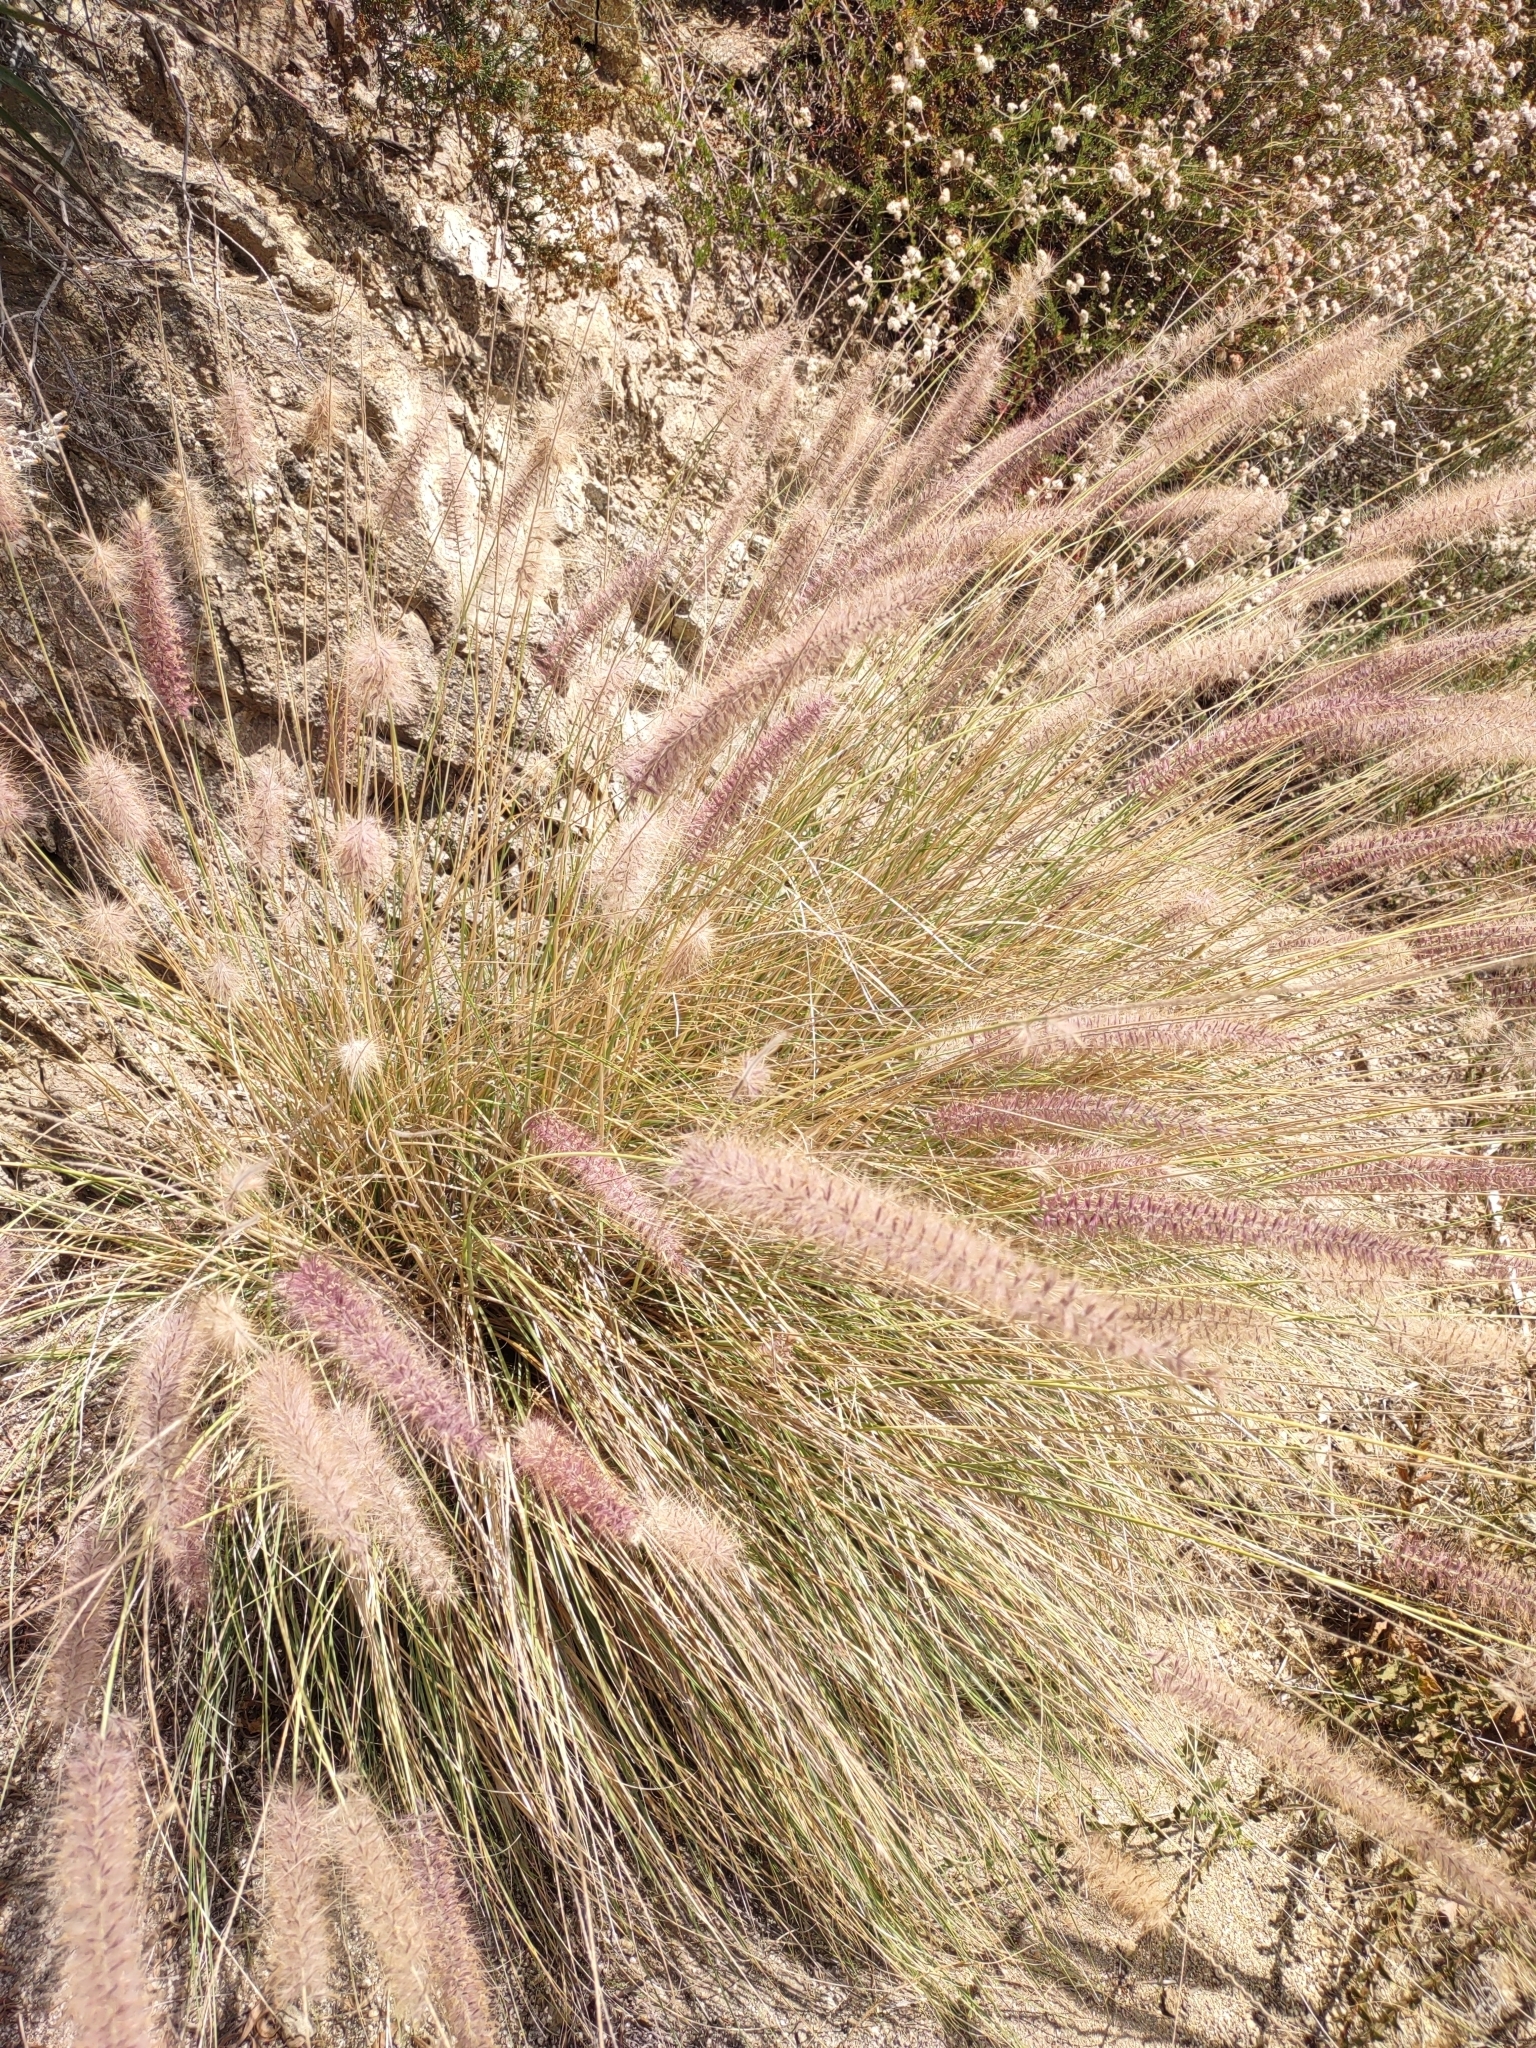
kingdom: Plantae
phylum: Tracheophyta
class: Liliopsida
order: Poales
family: Poaceae
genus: Cenchrus
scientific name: Cenchrus setaceus
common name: Crimson fountaingrass
